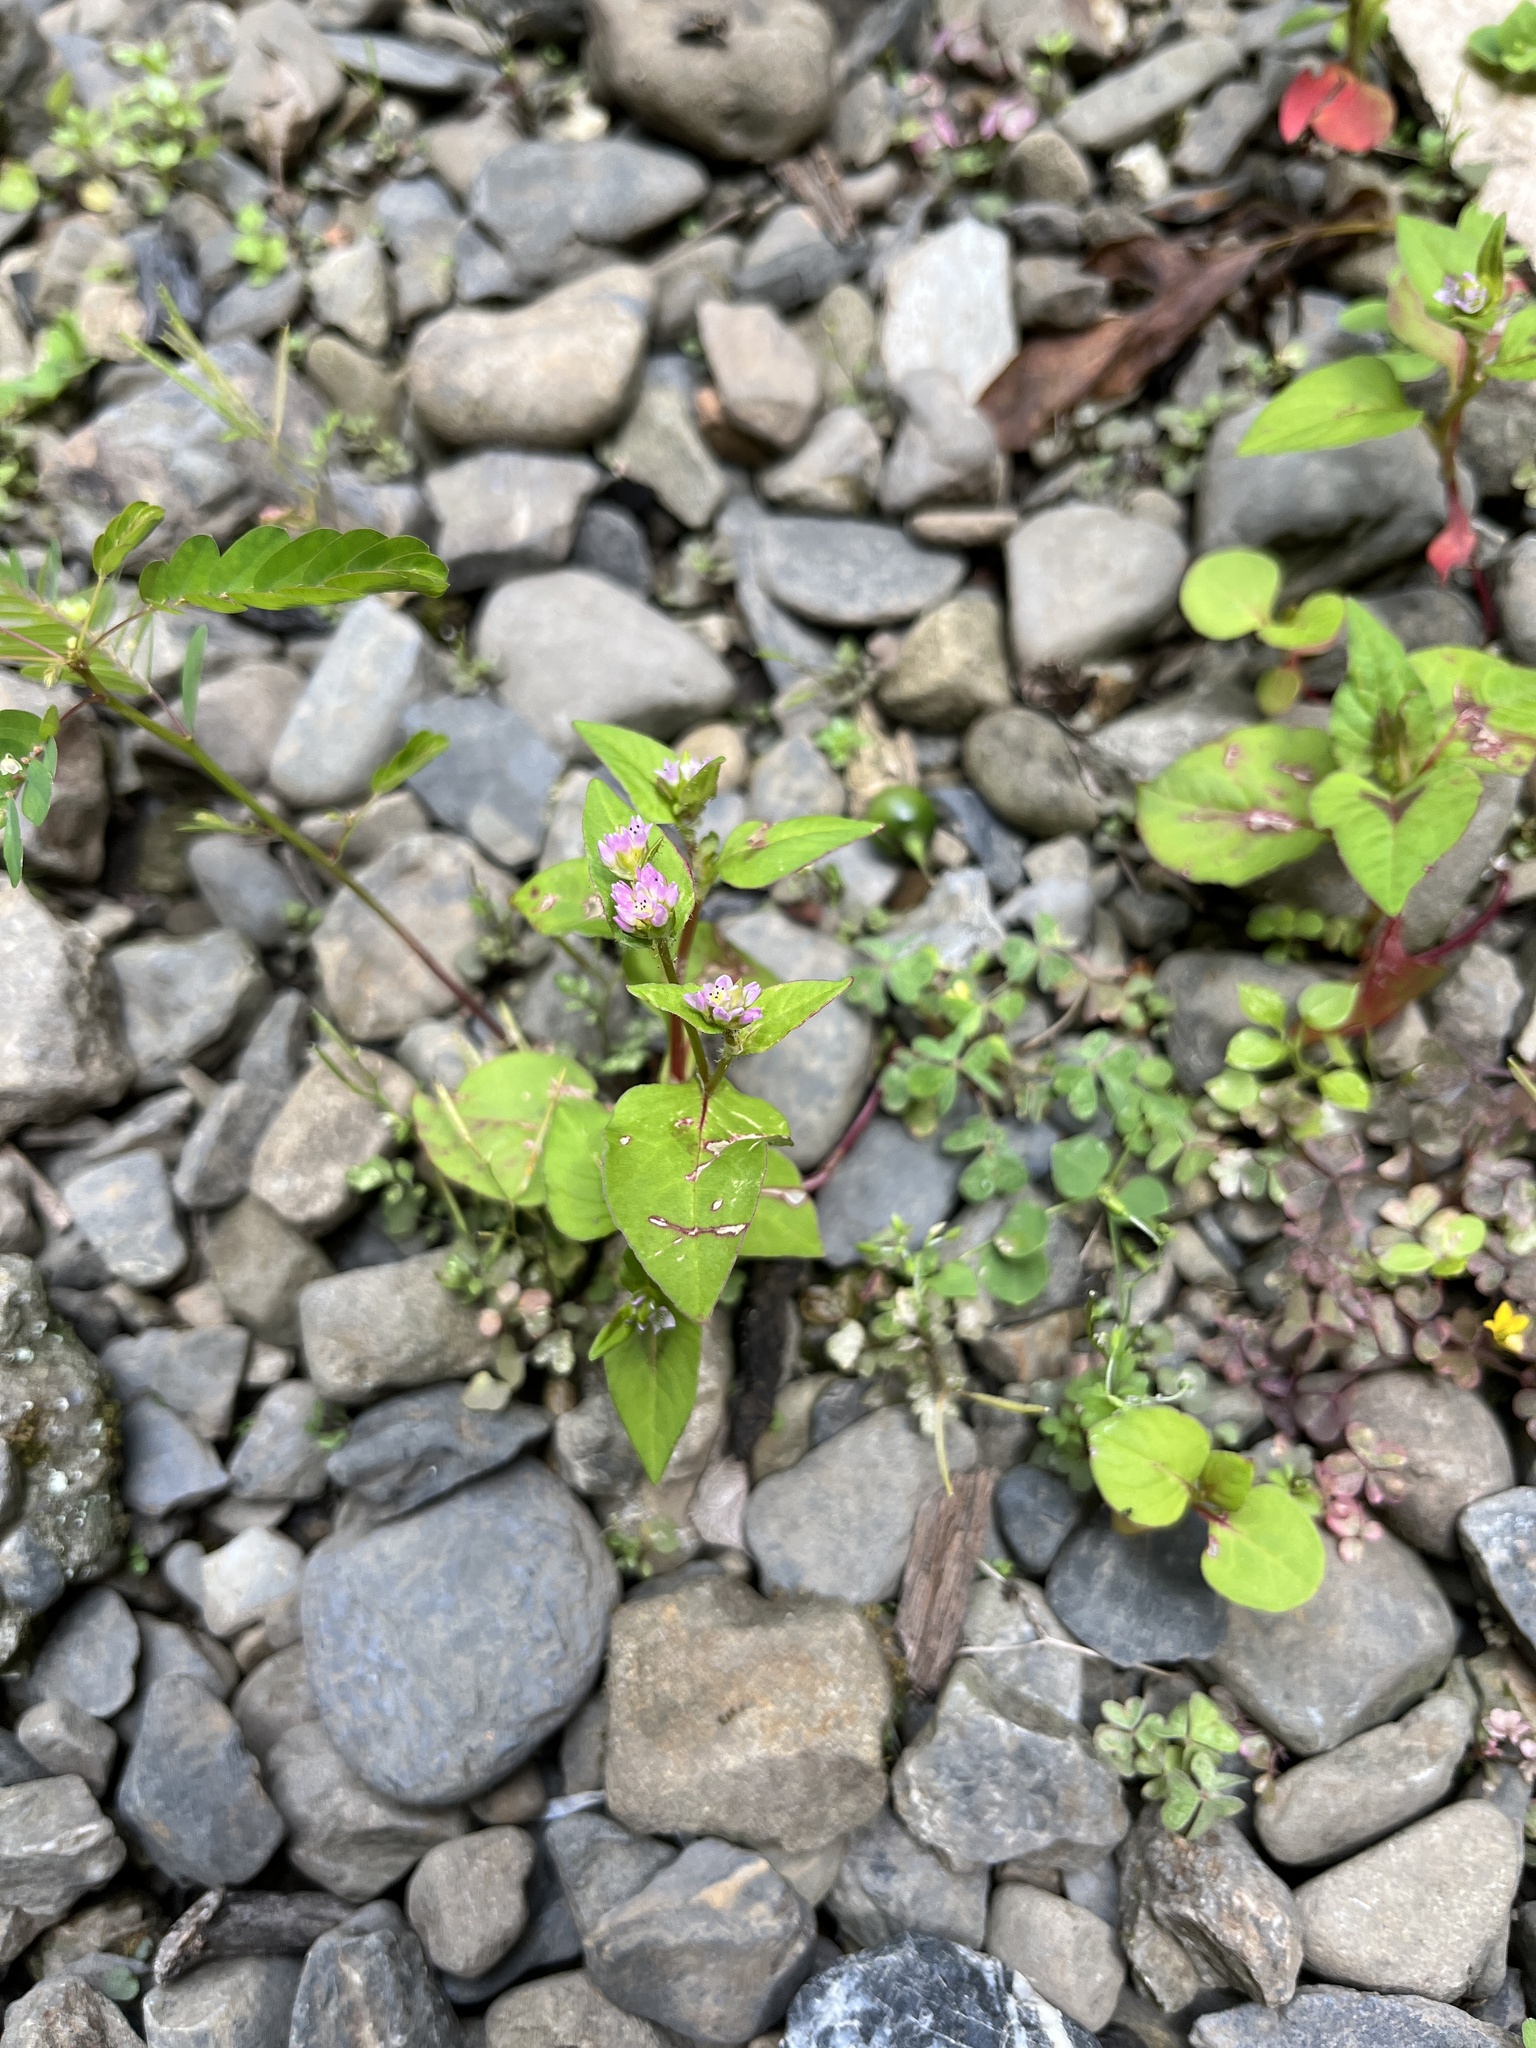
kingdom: Plantae
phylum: Tracheophyta
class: Magnoliopsida
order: Caryophyllales
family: Polygonaceae
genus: Persicaria
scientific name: Persicaria nepalensis
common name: Nepal persicaria
